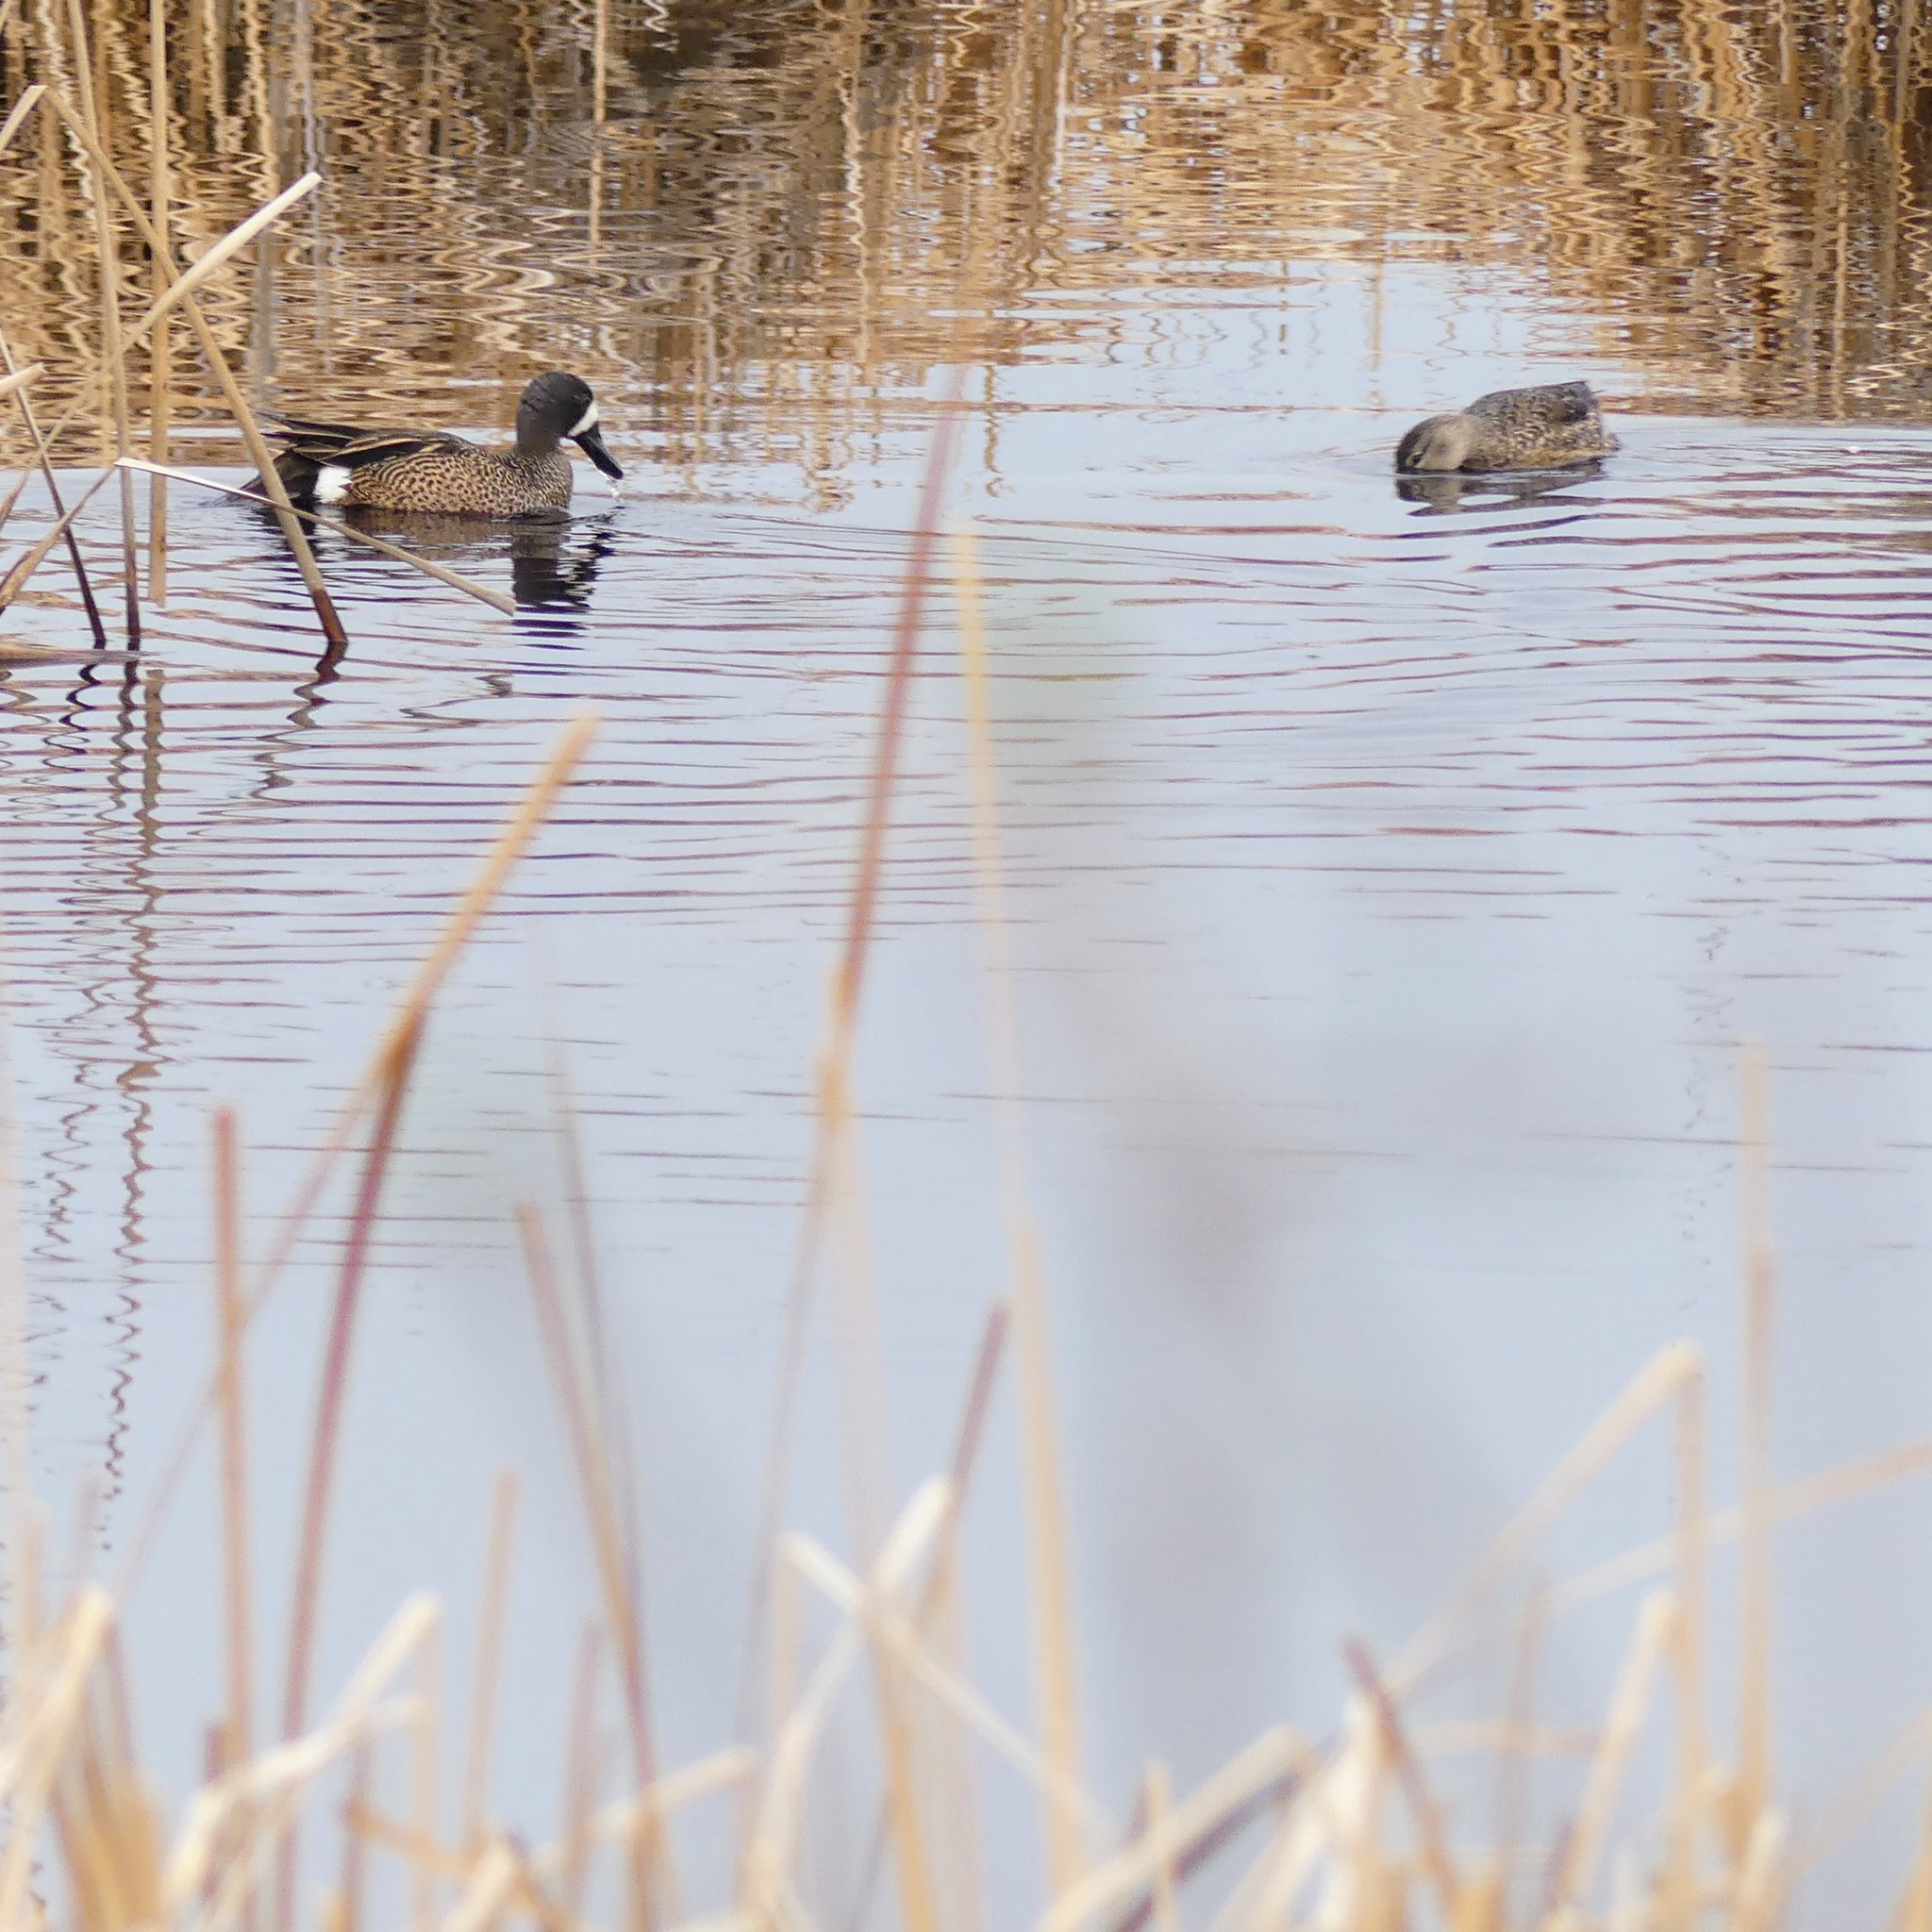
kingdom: Animalia
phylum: Chordata
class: Aves
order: Anseriformes
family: Anatidae
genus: Spatula
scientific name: Spatula discors
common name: Blue-winged teal
